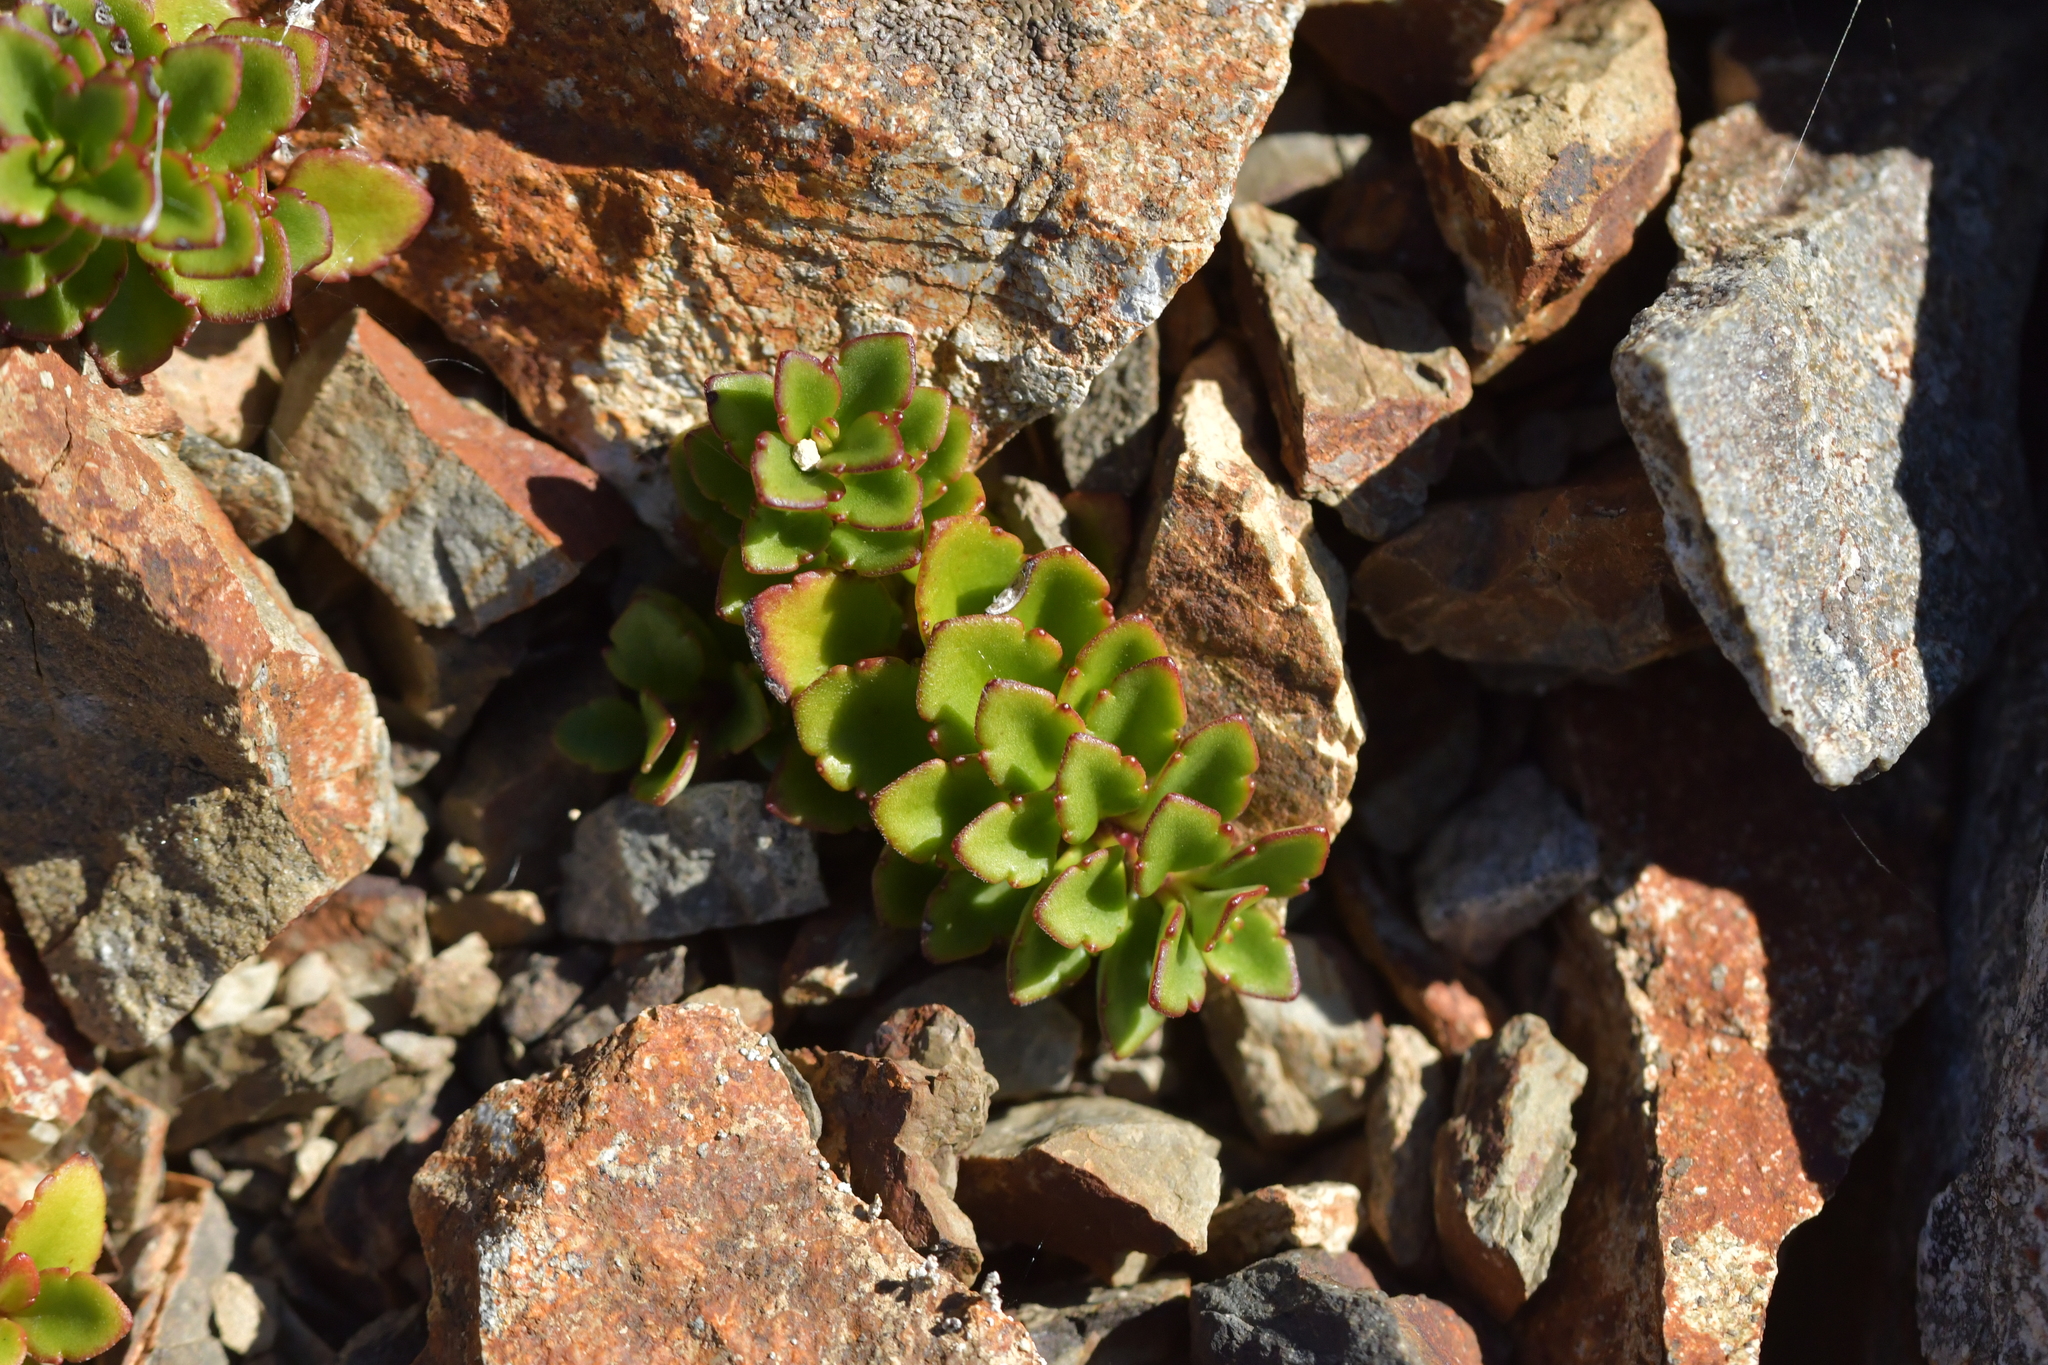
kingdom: Plantae
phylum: Tracheophyta
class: Magnoliopsida
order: Lamiales
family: Plantaginaceae
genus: Veronica
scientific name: Veronica hookeriana
